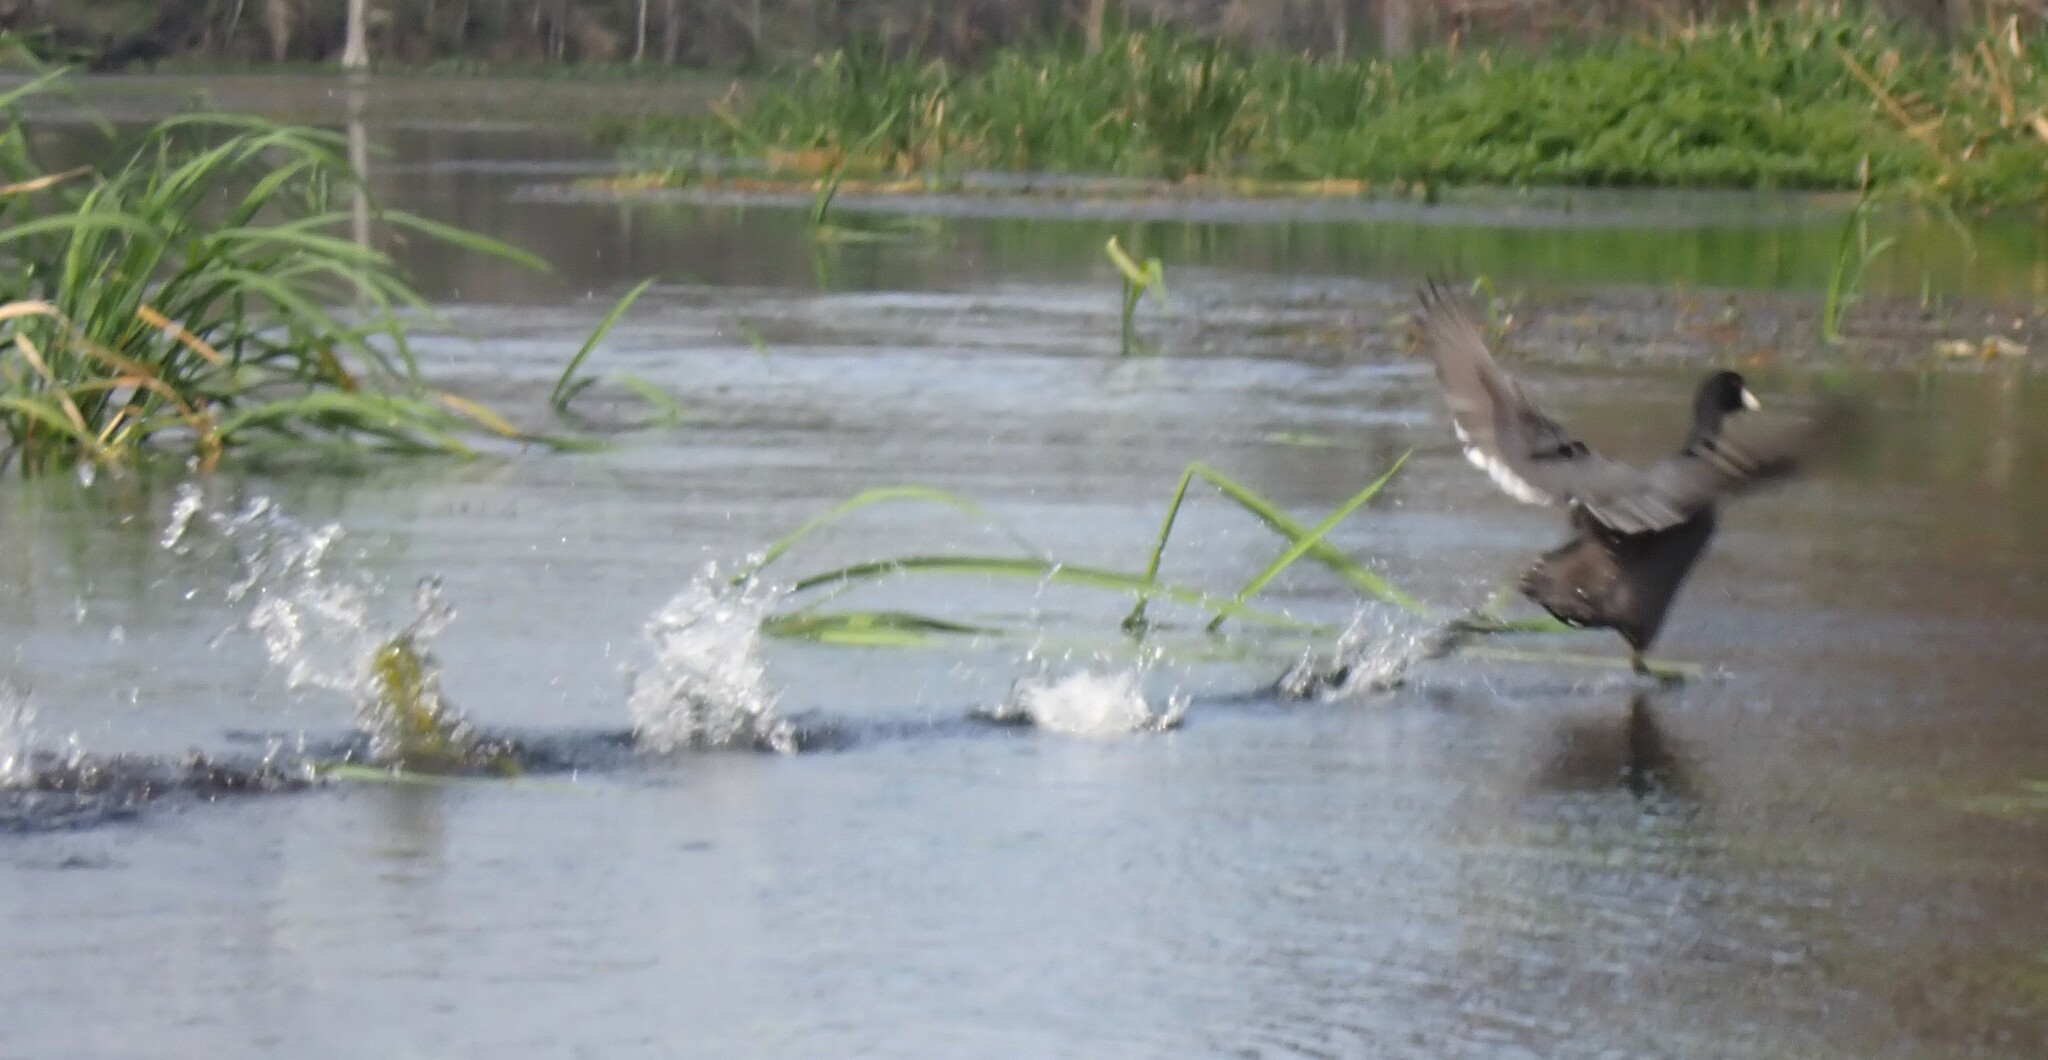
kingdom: Animalia
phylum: Chordata
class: Aves
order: Gruiformes
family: Rallidae
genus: Fulica
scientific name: Fulica americana
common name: American coot
